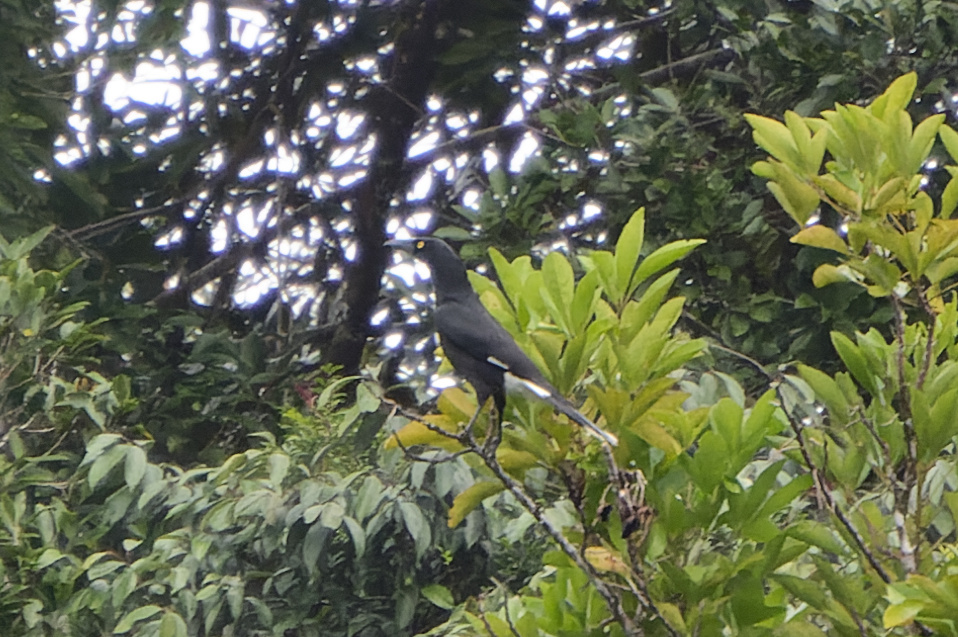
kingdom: Animalia
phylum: Chordata
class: Aves
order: Passeriformes
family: Cracticidae
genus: Strepera
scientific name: Strepera graculina
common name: Pied currawong
